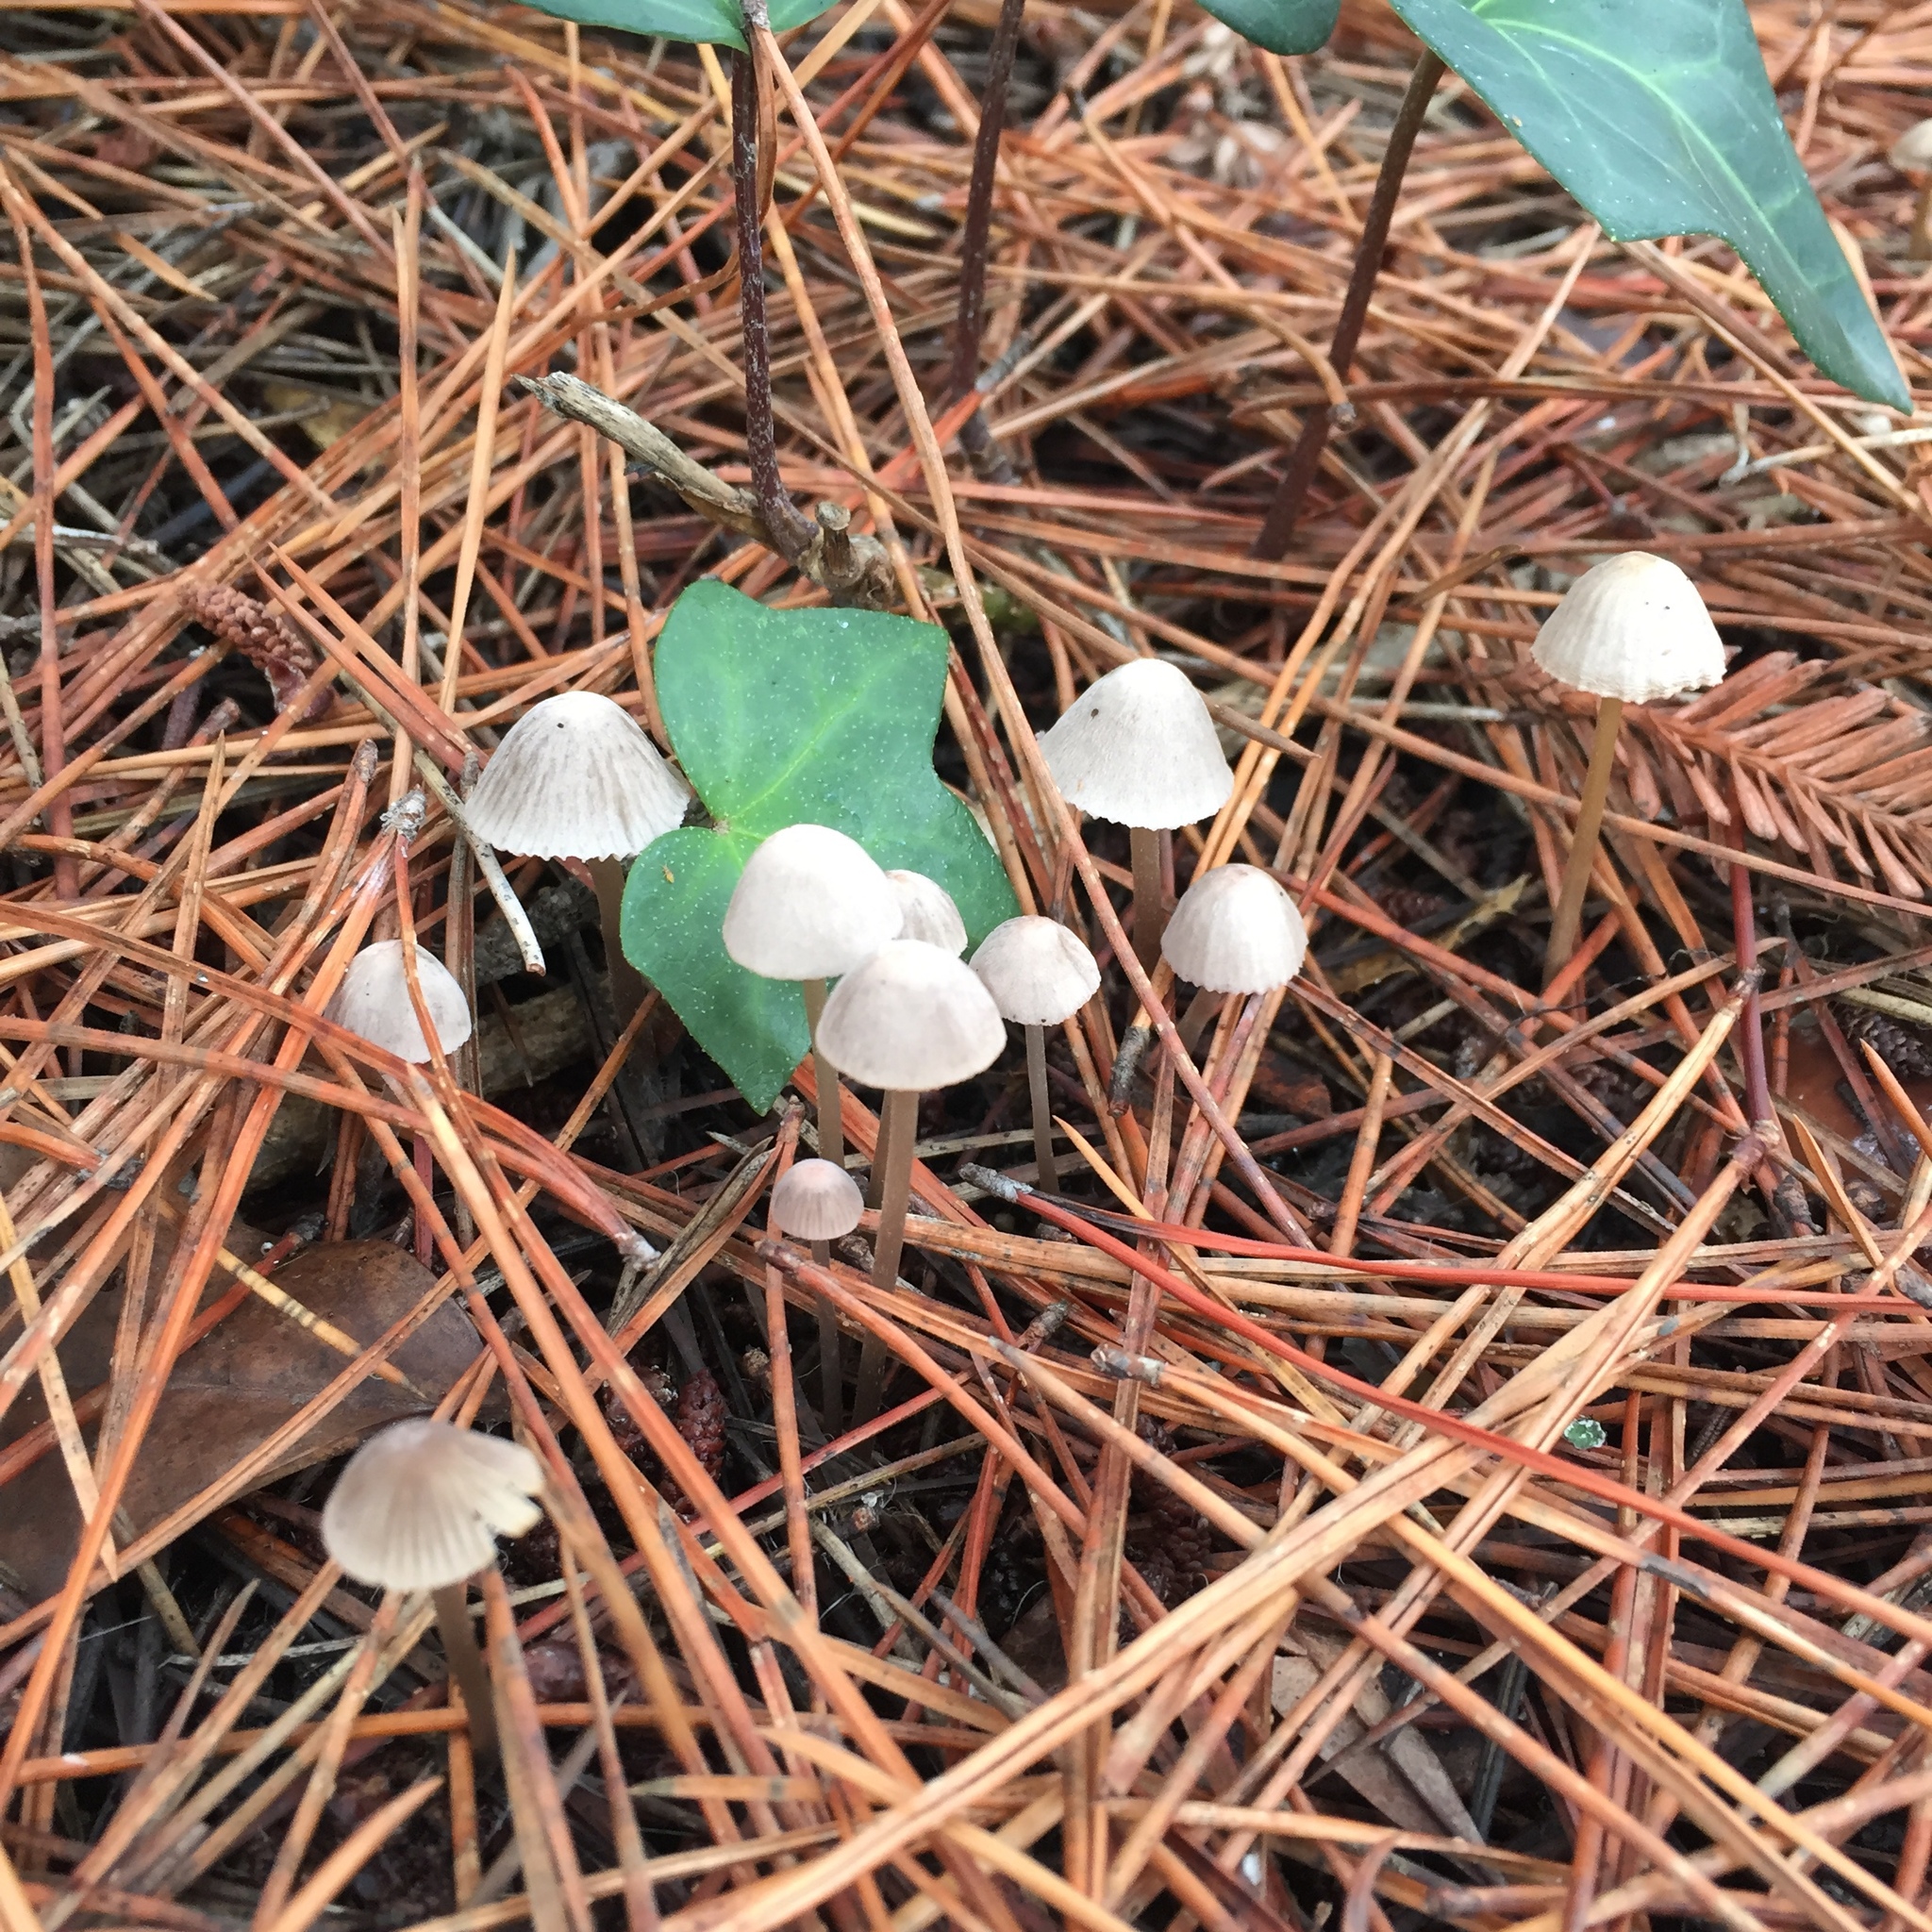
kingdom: Fungi
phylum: Basidiomycota
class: Agaricomycetes
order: Agaricales
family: Mycenaceae
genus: Mycena
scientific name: Mycena capillaripes
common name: Pinkedge bonnet
